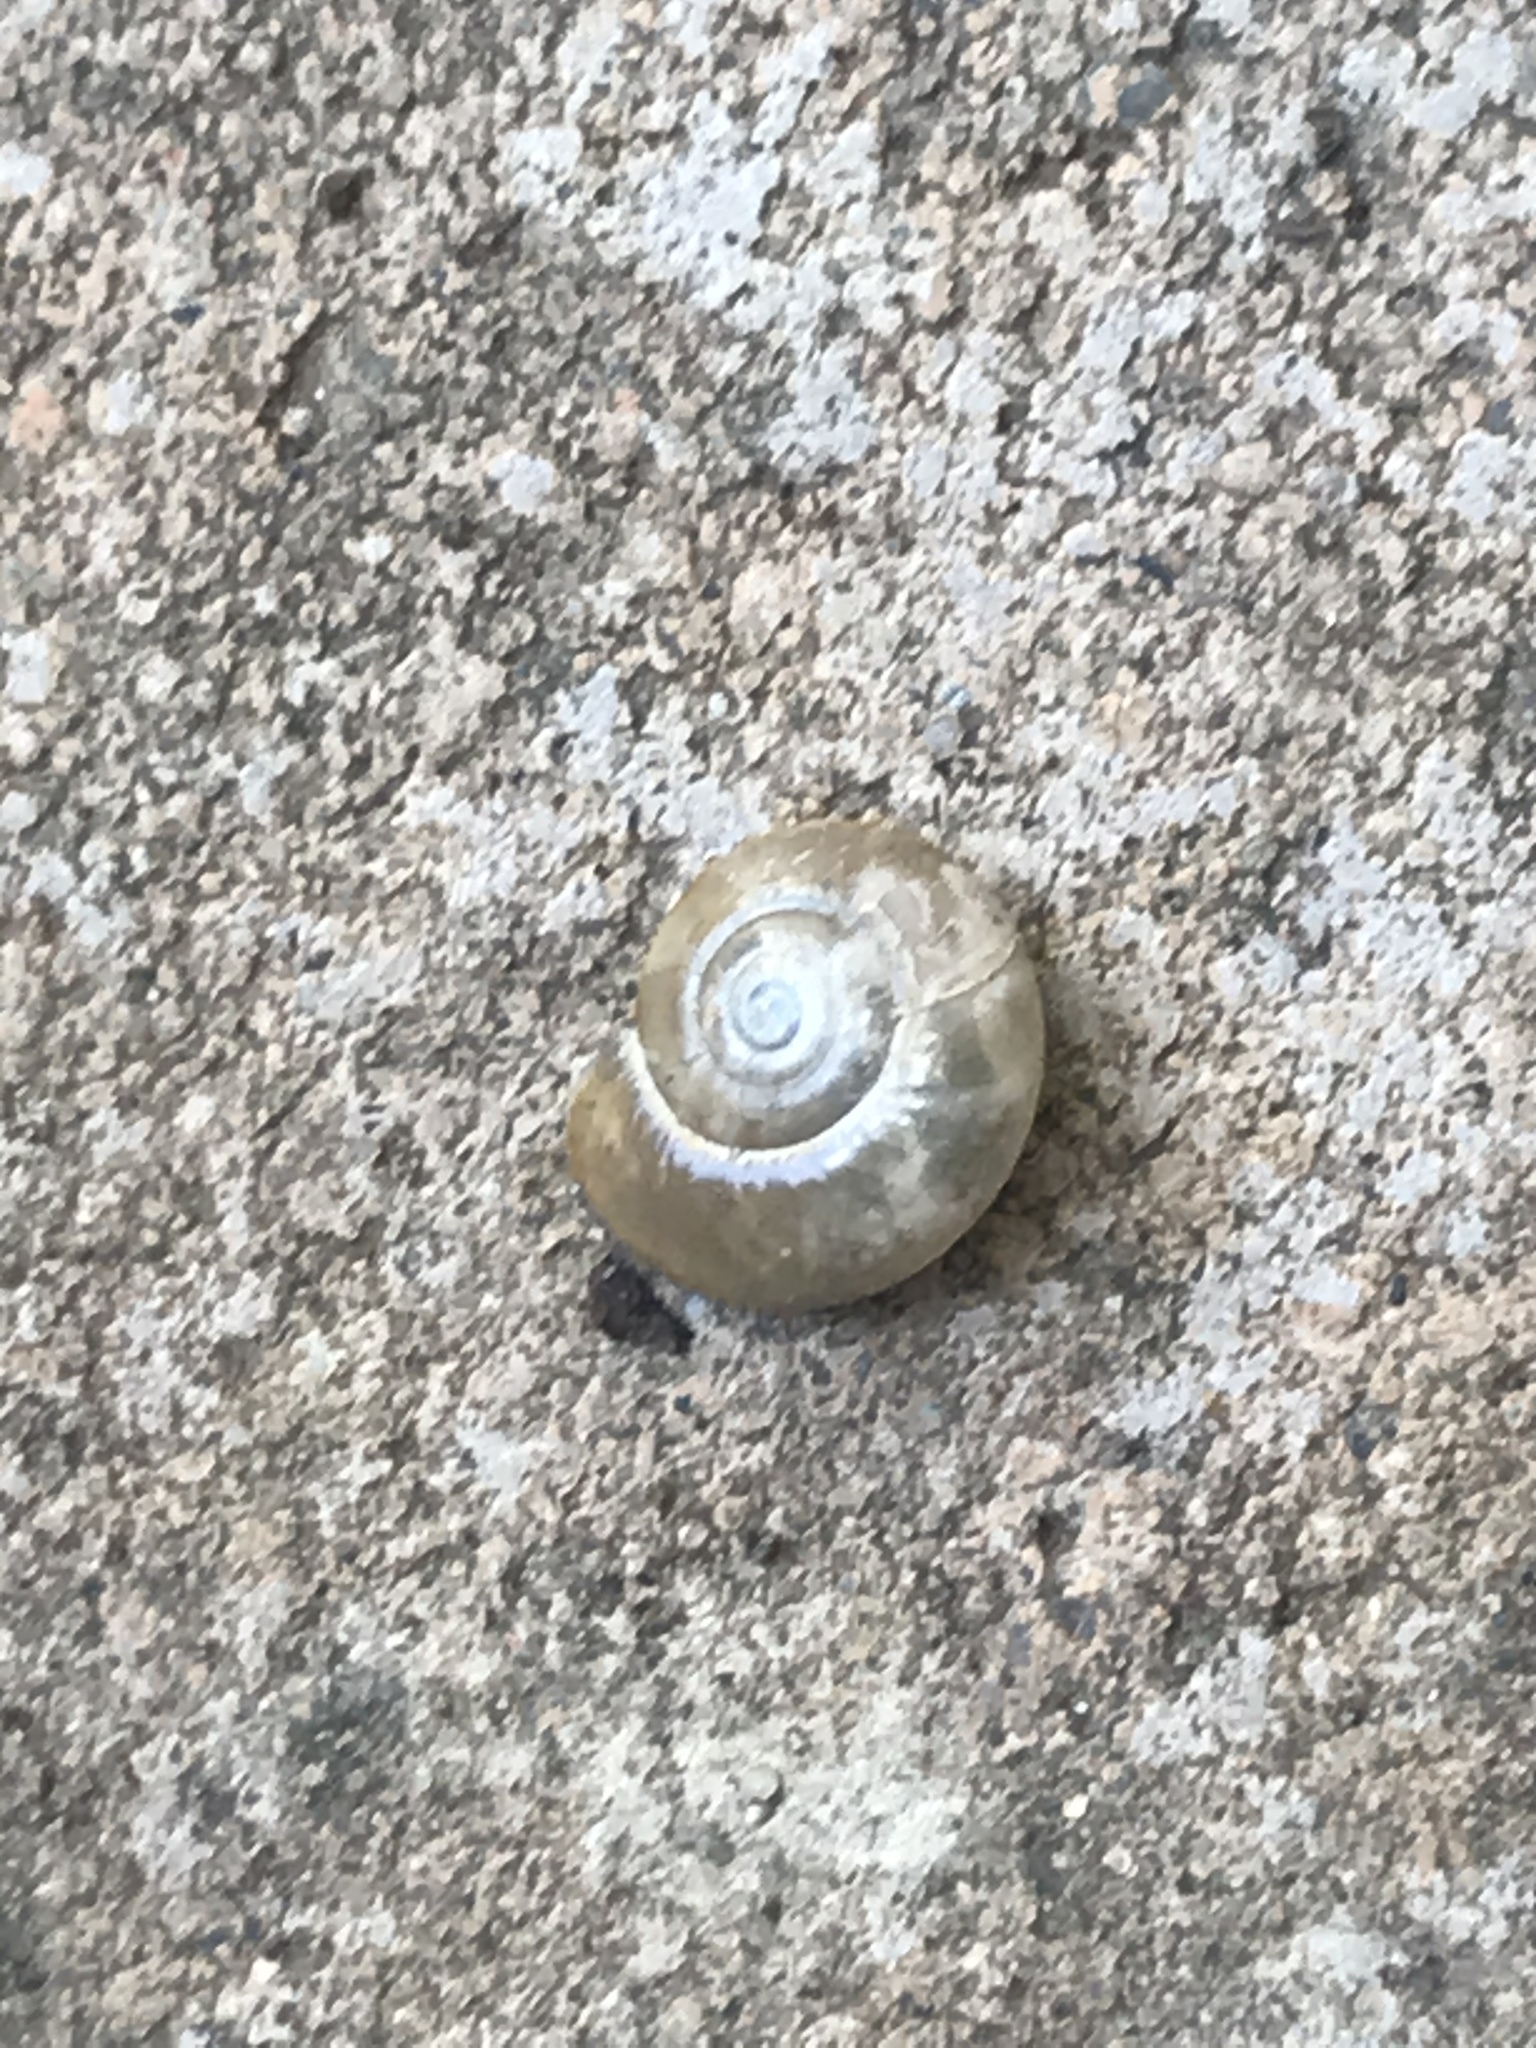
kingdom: Animalia
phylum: Mollusca
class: Gastropoda
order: Stylommatophora
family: Oxychilidae
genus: Oxychilus
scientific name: Oxychilus
